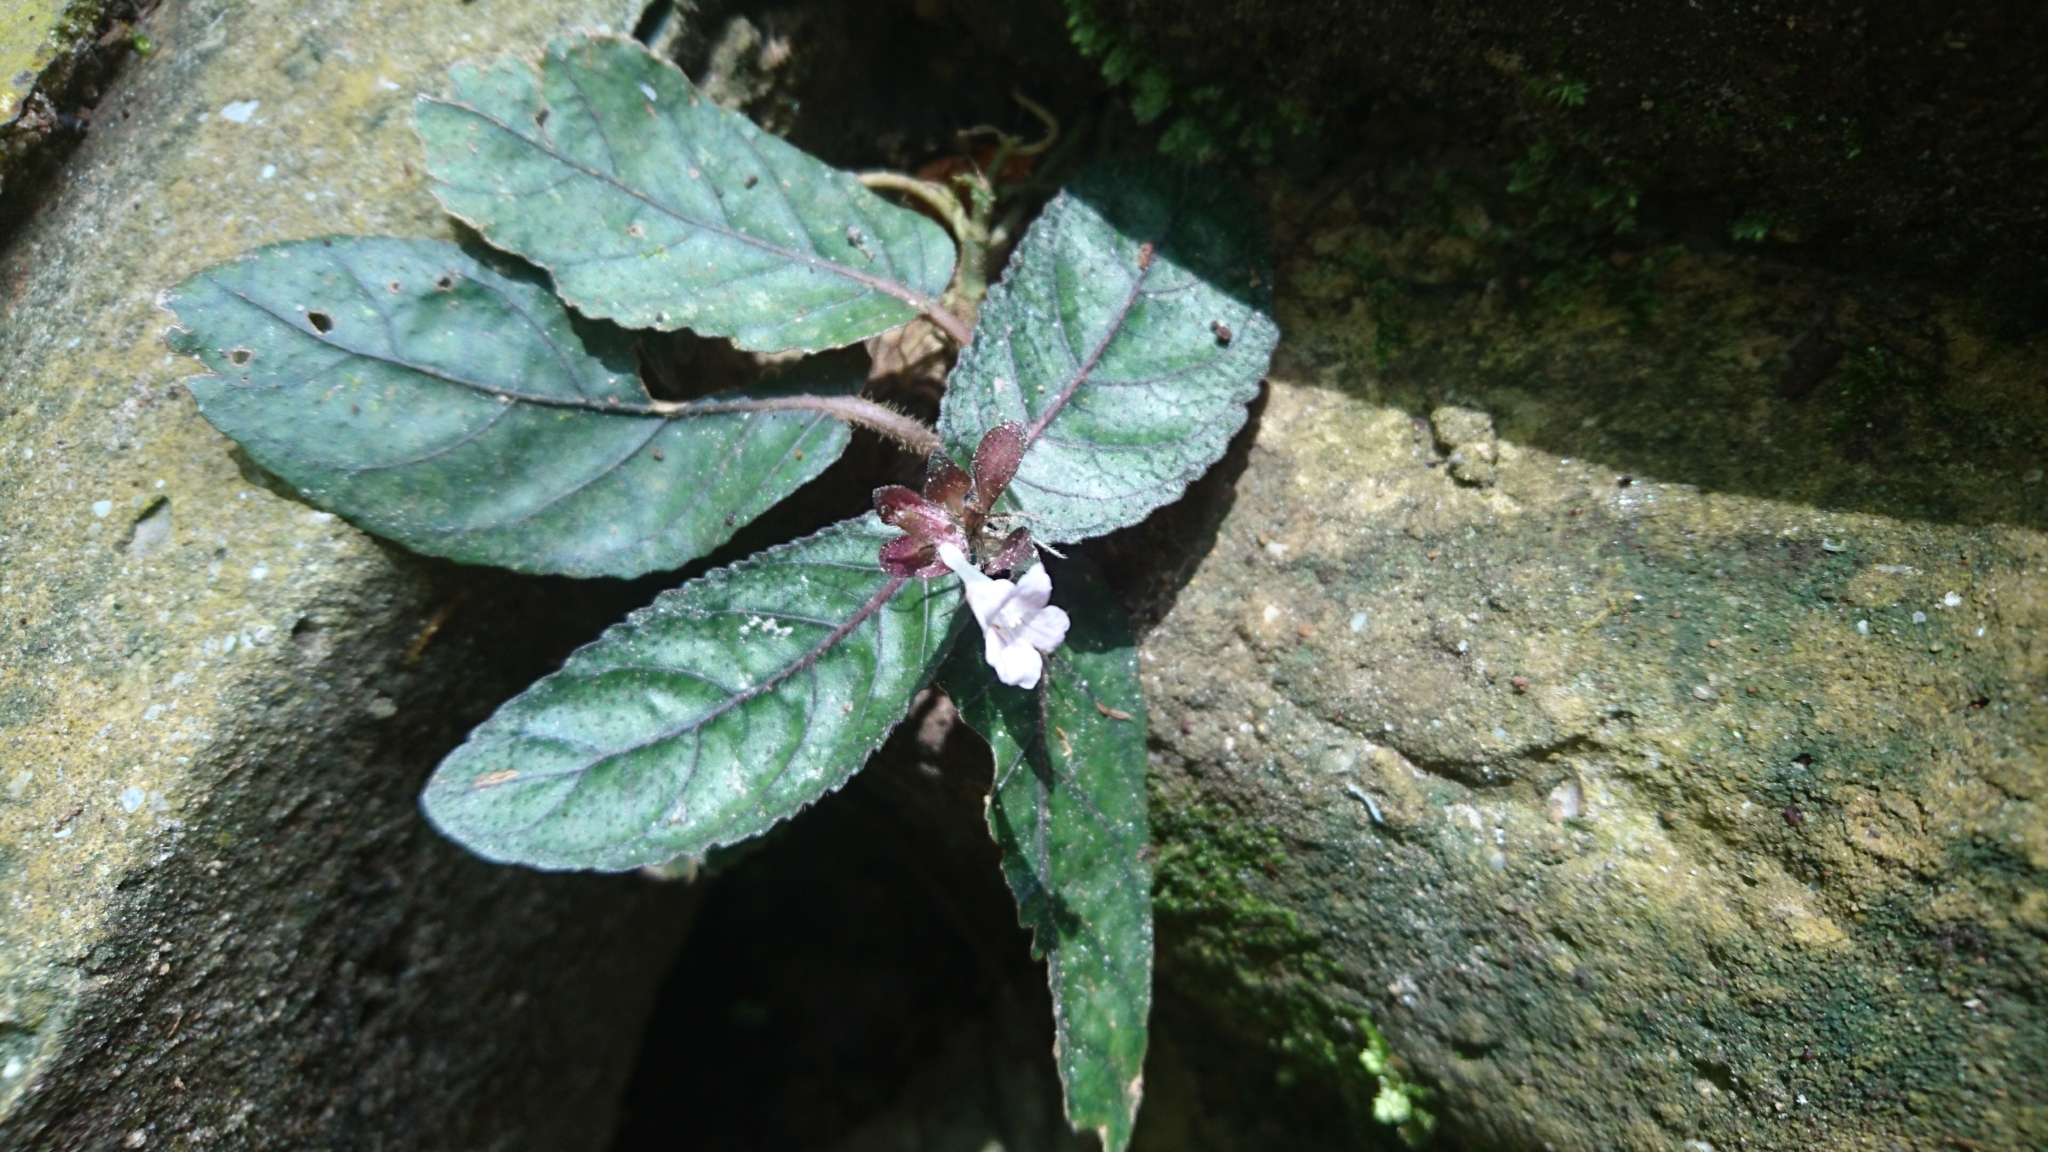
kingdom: Plantae
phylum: Tracheophyta
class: Magnoliopsida
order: Lamiales
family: Acanthaceae
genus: Strobilanthes
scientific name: Strobilanthes reptans
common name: Acanthaceae
